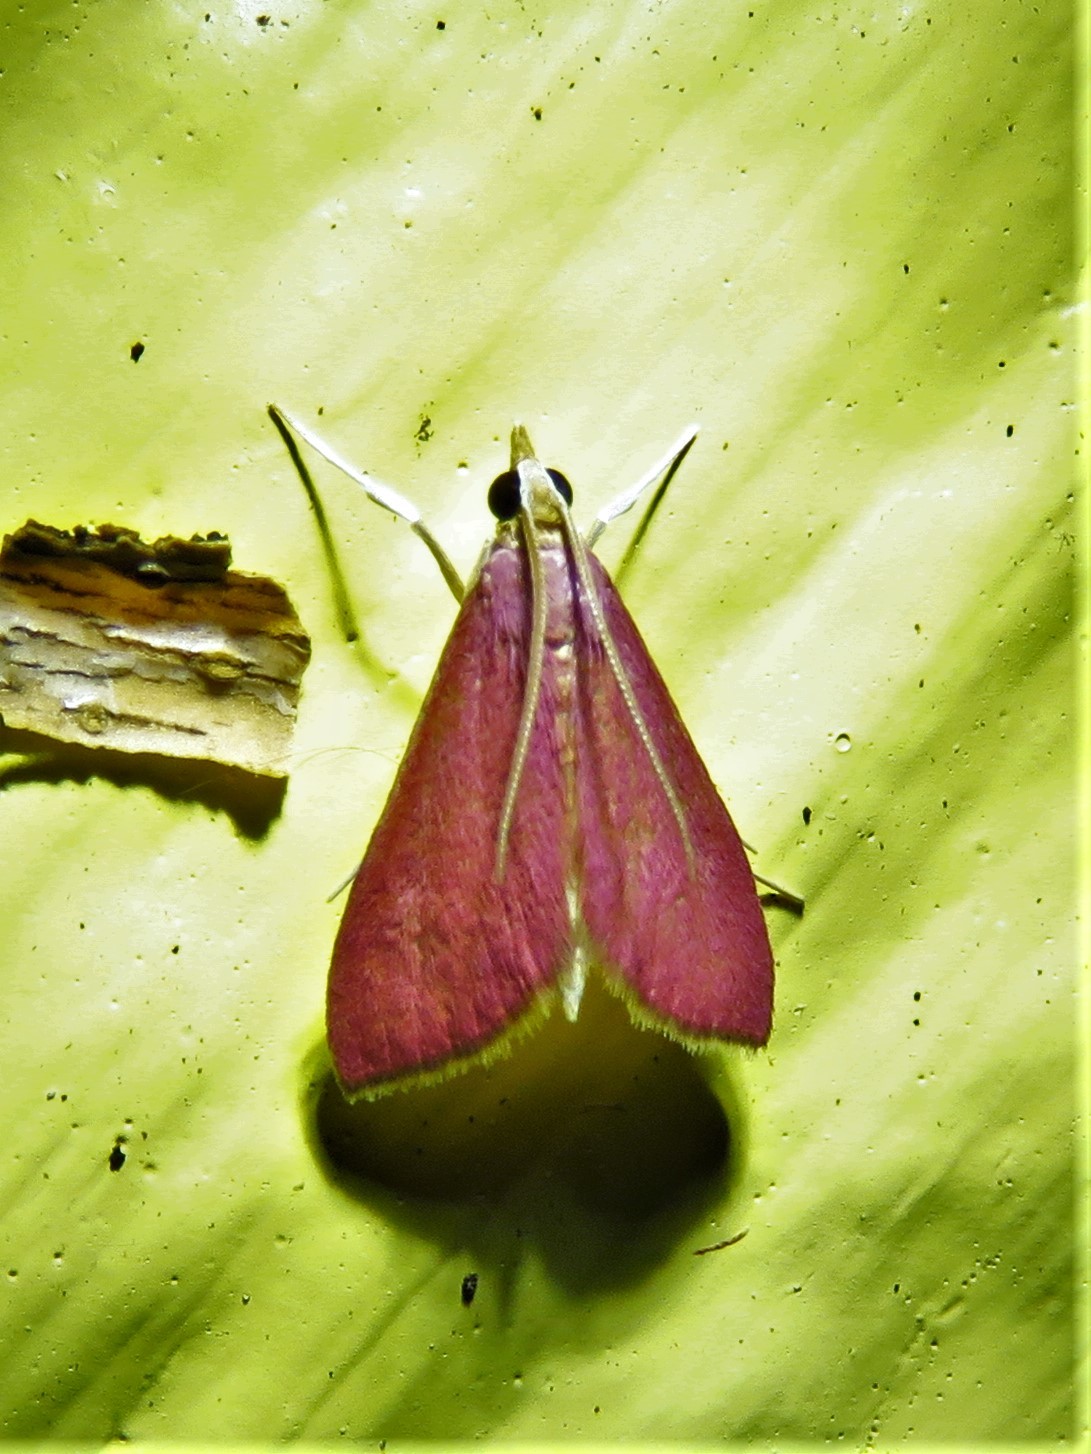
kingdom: Animalia
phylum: Arthropoda
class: Insecta
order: Lepidoptera
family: Crambidae
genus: Pyrausta
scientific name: Pyrausta inornatalis
